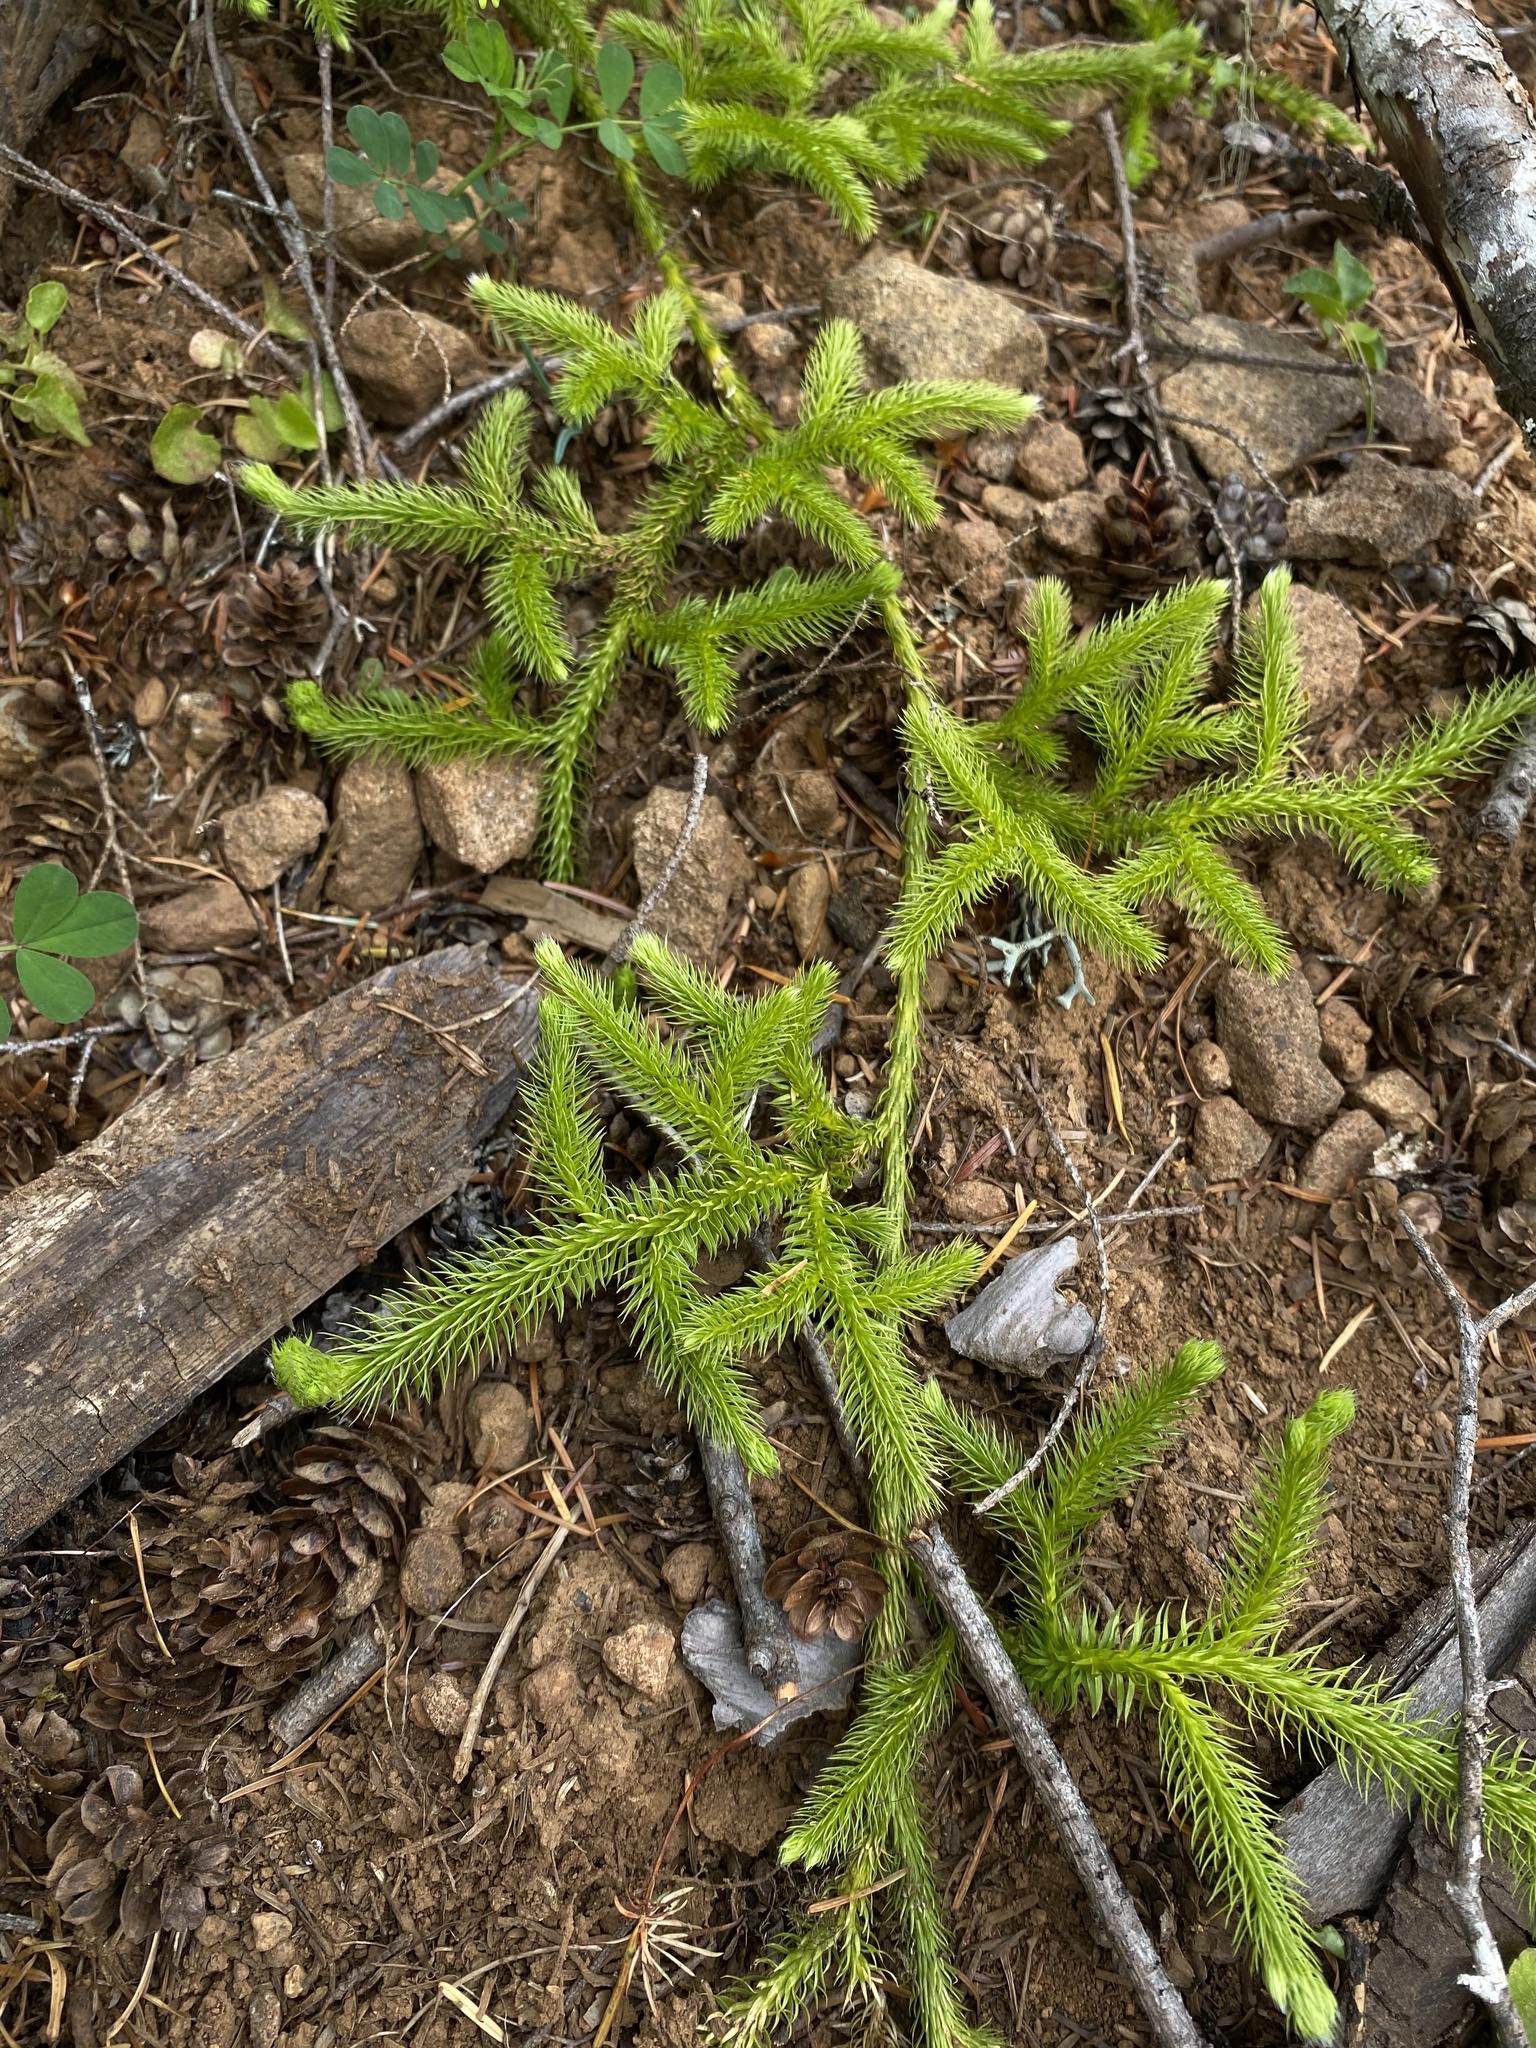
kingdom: Plantae
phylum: Tracheophyta
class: Lycopodiopsida
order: Lycopodiales
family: Lycopodiaceae
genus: Lycopodium
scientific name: Lycopodium clavatum
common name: Stag's-horn clubmoss
